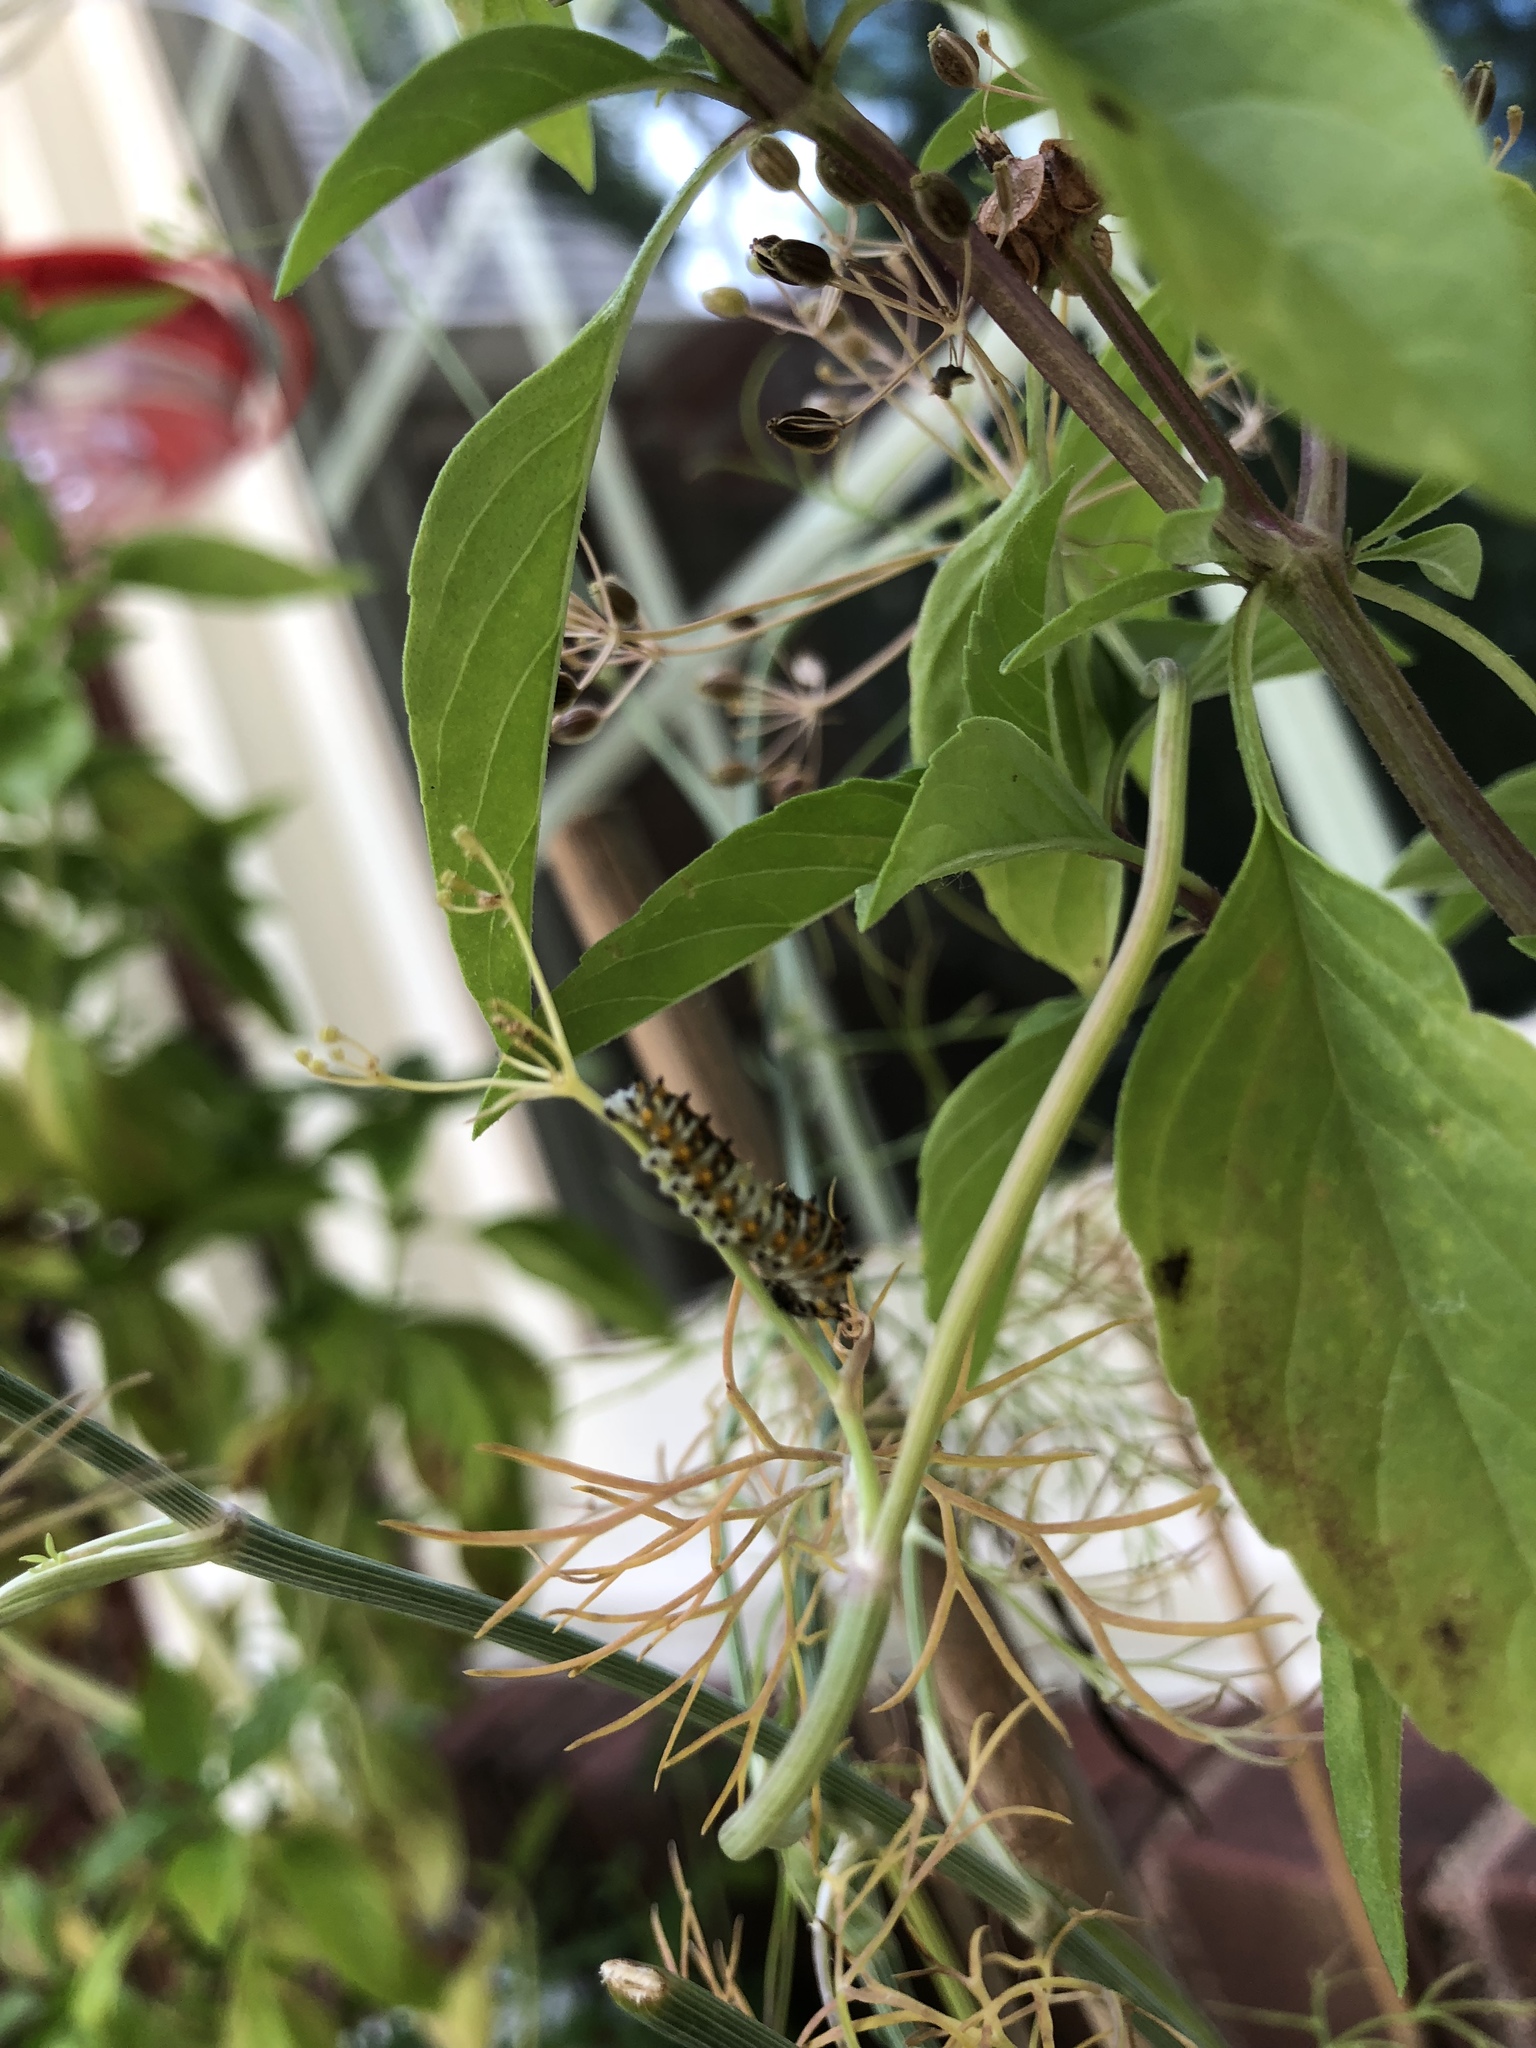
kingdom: Animalia
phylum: Arthropoda
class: Insecta
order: Lepidoptera
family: Papilionidae
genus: Papilio
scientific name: Papilio polyxenes
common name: Black swallowtail
